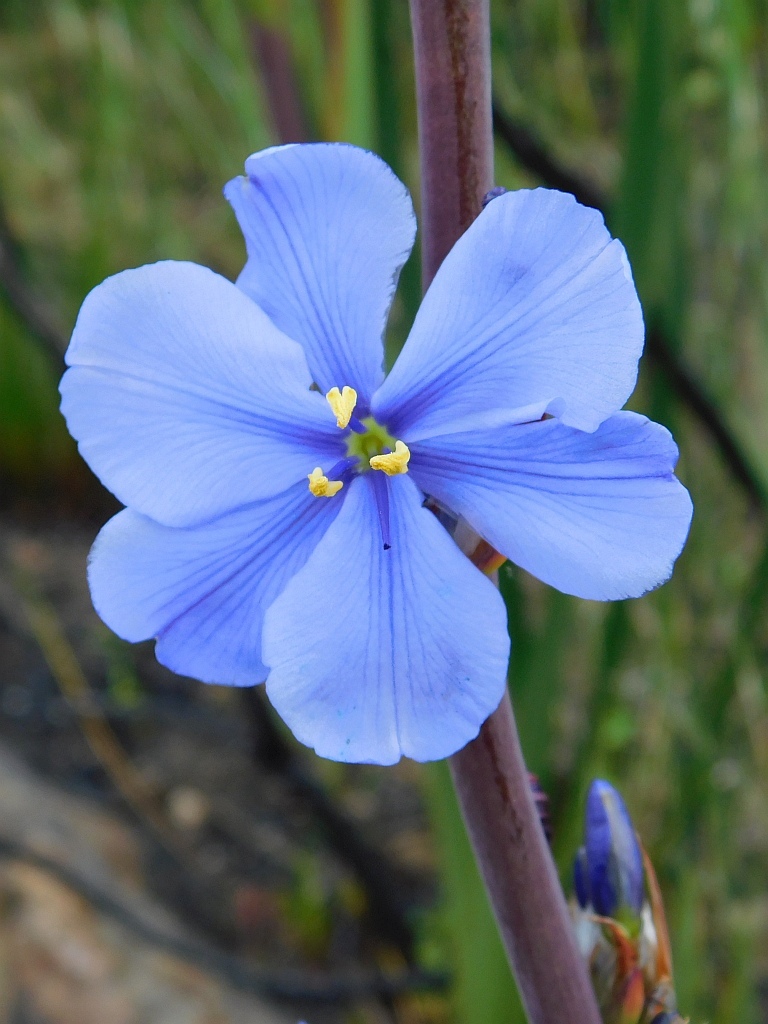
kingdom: Plantae
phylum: Tracheophyta
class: Liliopsida
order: Asparagales
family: Iridaceae
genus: Aristea
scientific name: Aristea capitata
